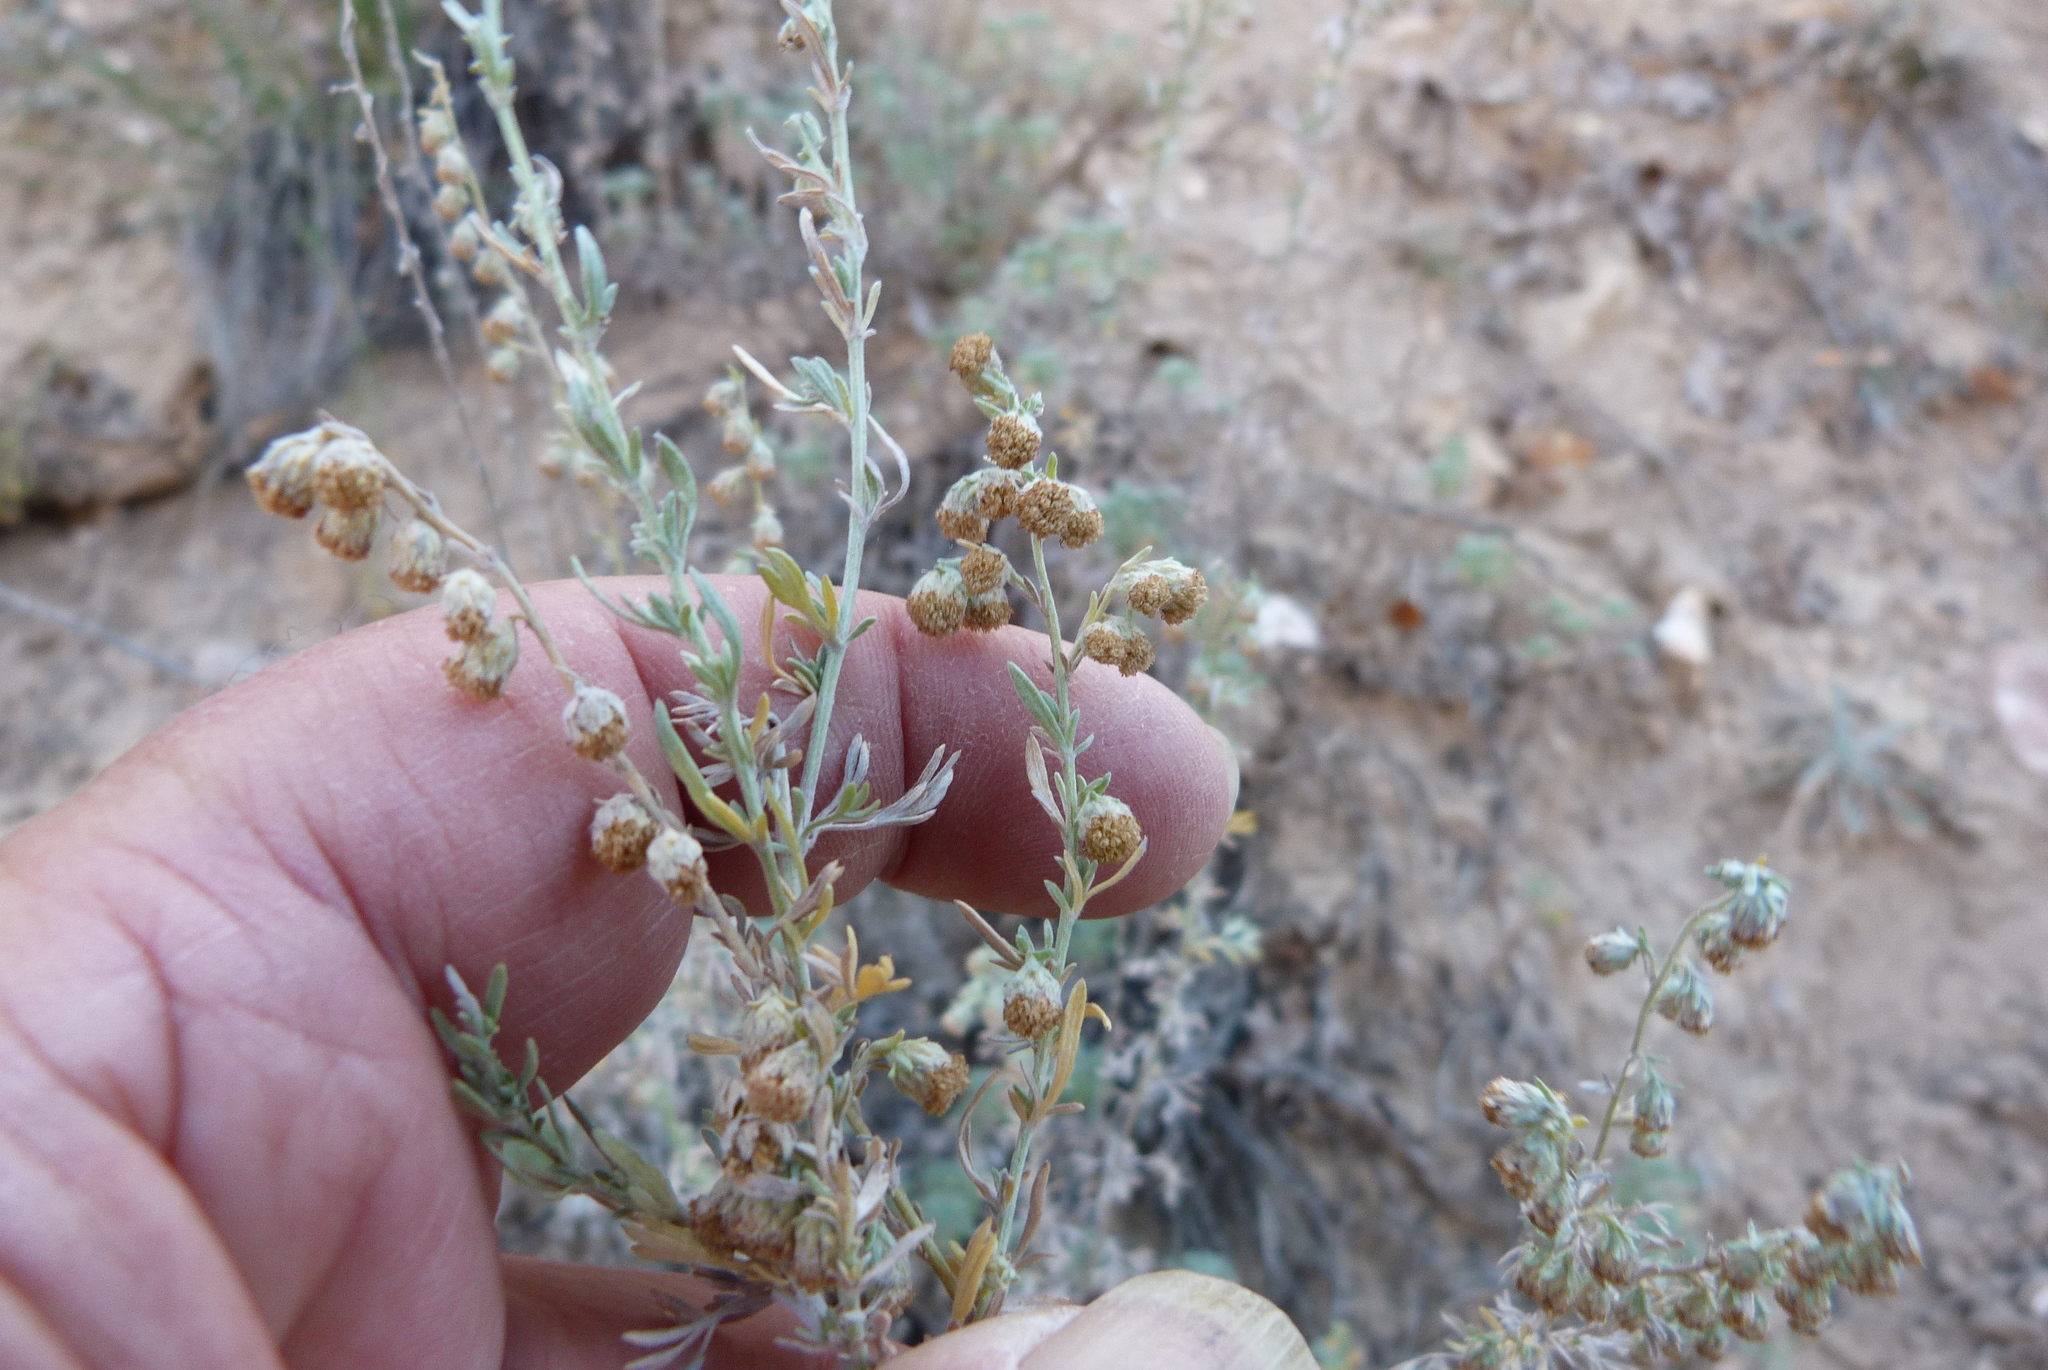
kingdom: Plantae
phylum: Tracheophyta
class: Magnoliopsida
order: Asterales
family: Asteraceae
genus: Artemisia
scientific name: Artemisia frigida
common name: Prairie sagewort
